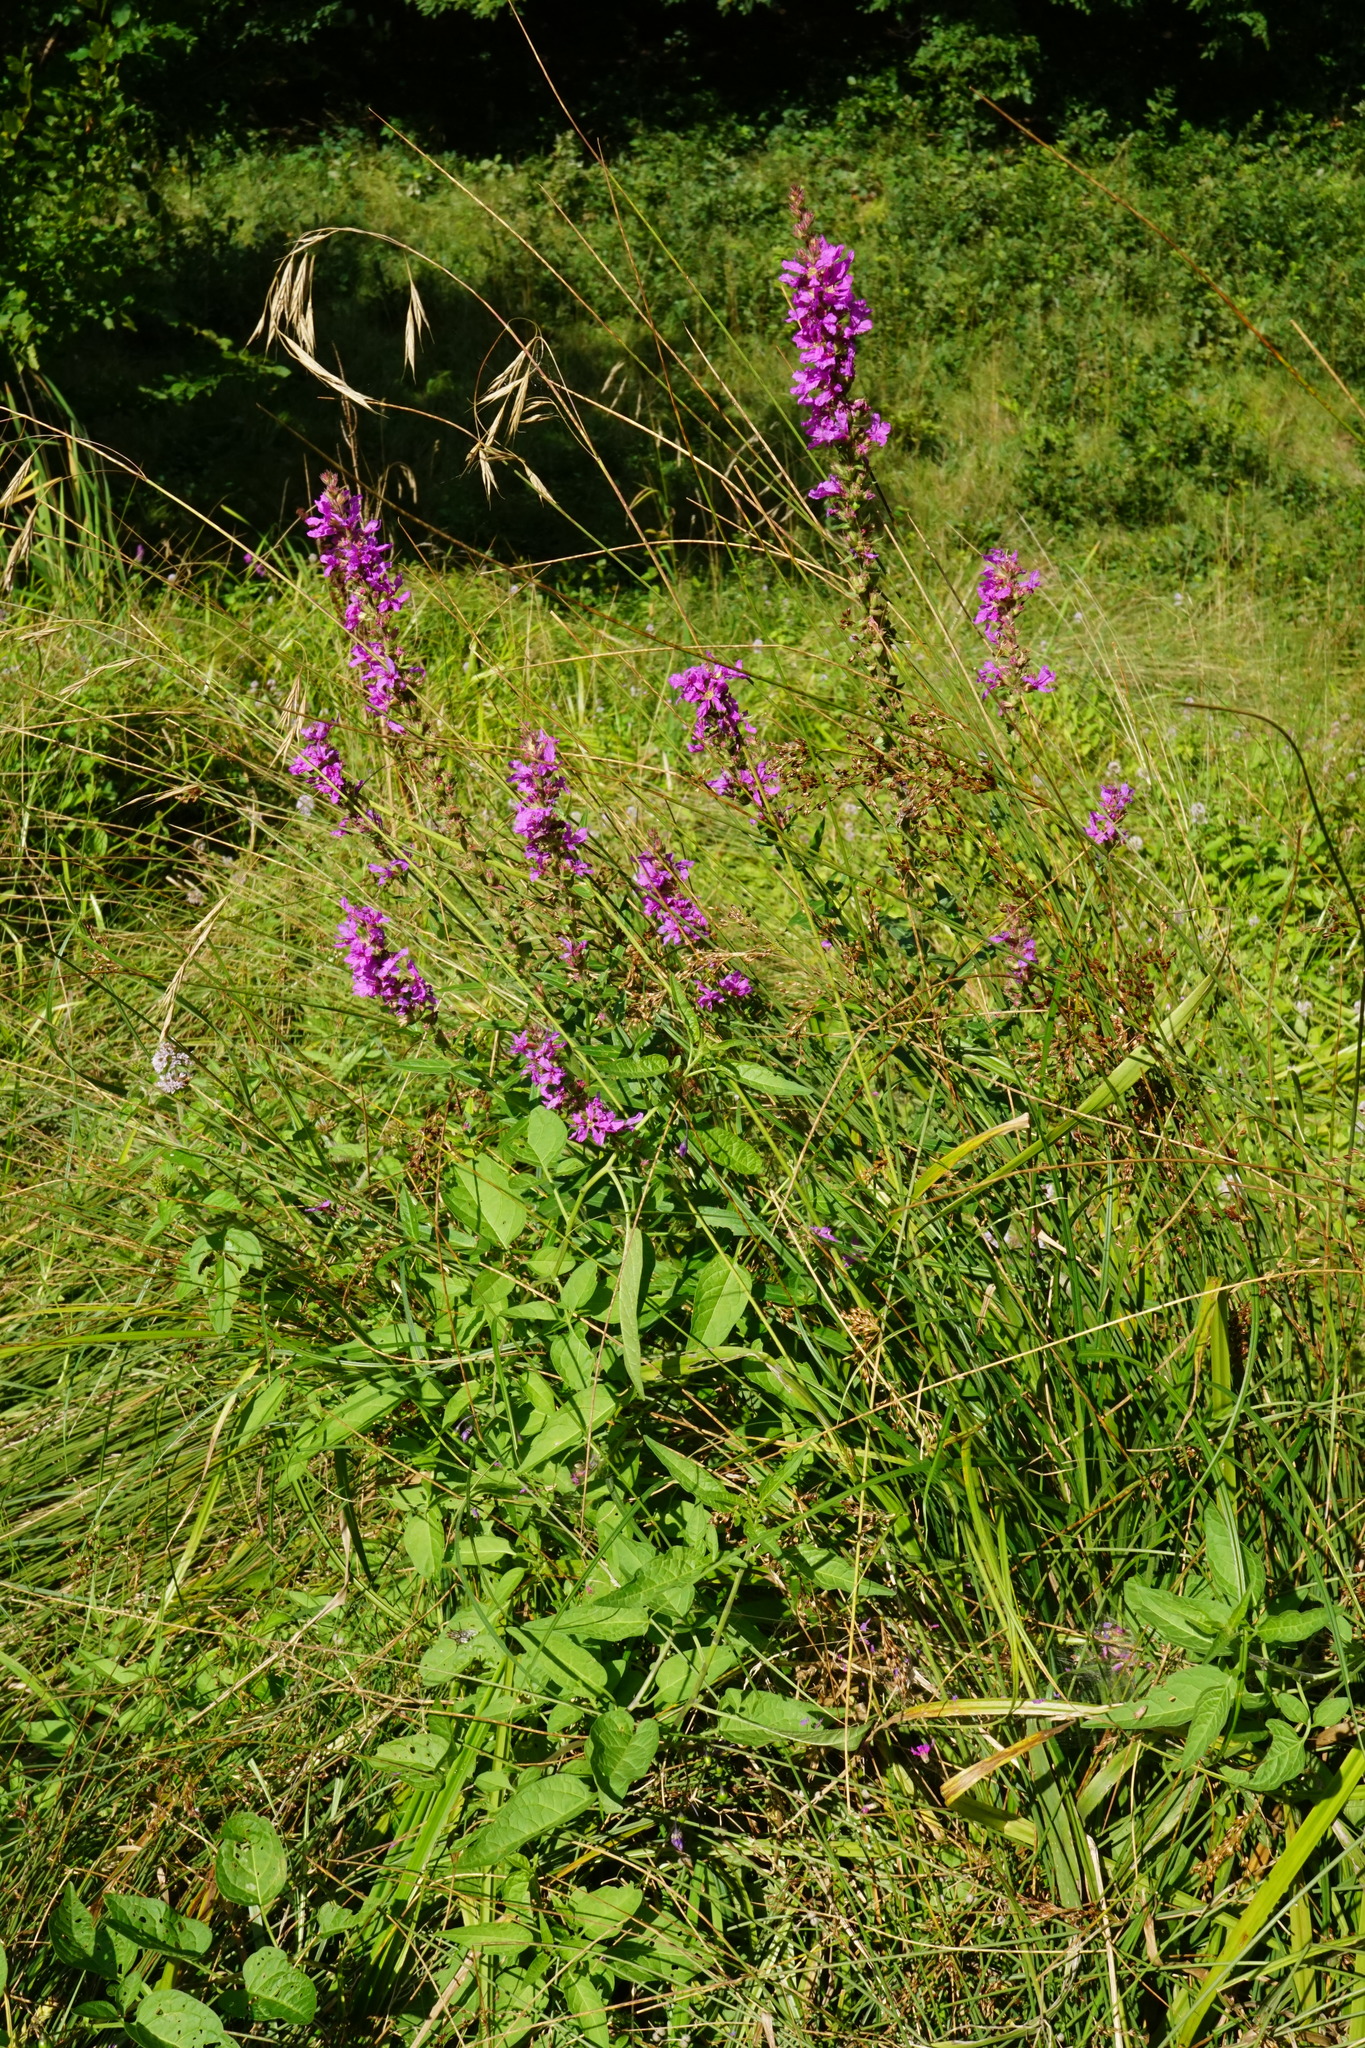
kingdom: Plantae
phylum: Tracheophyta
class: Magnoliopsida
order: Myrtales
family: Lythraceae
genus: Lythrum
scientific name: Lythrum salicaria
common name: Purple loosestrife
